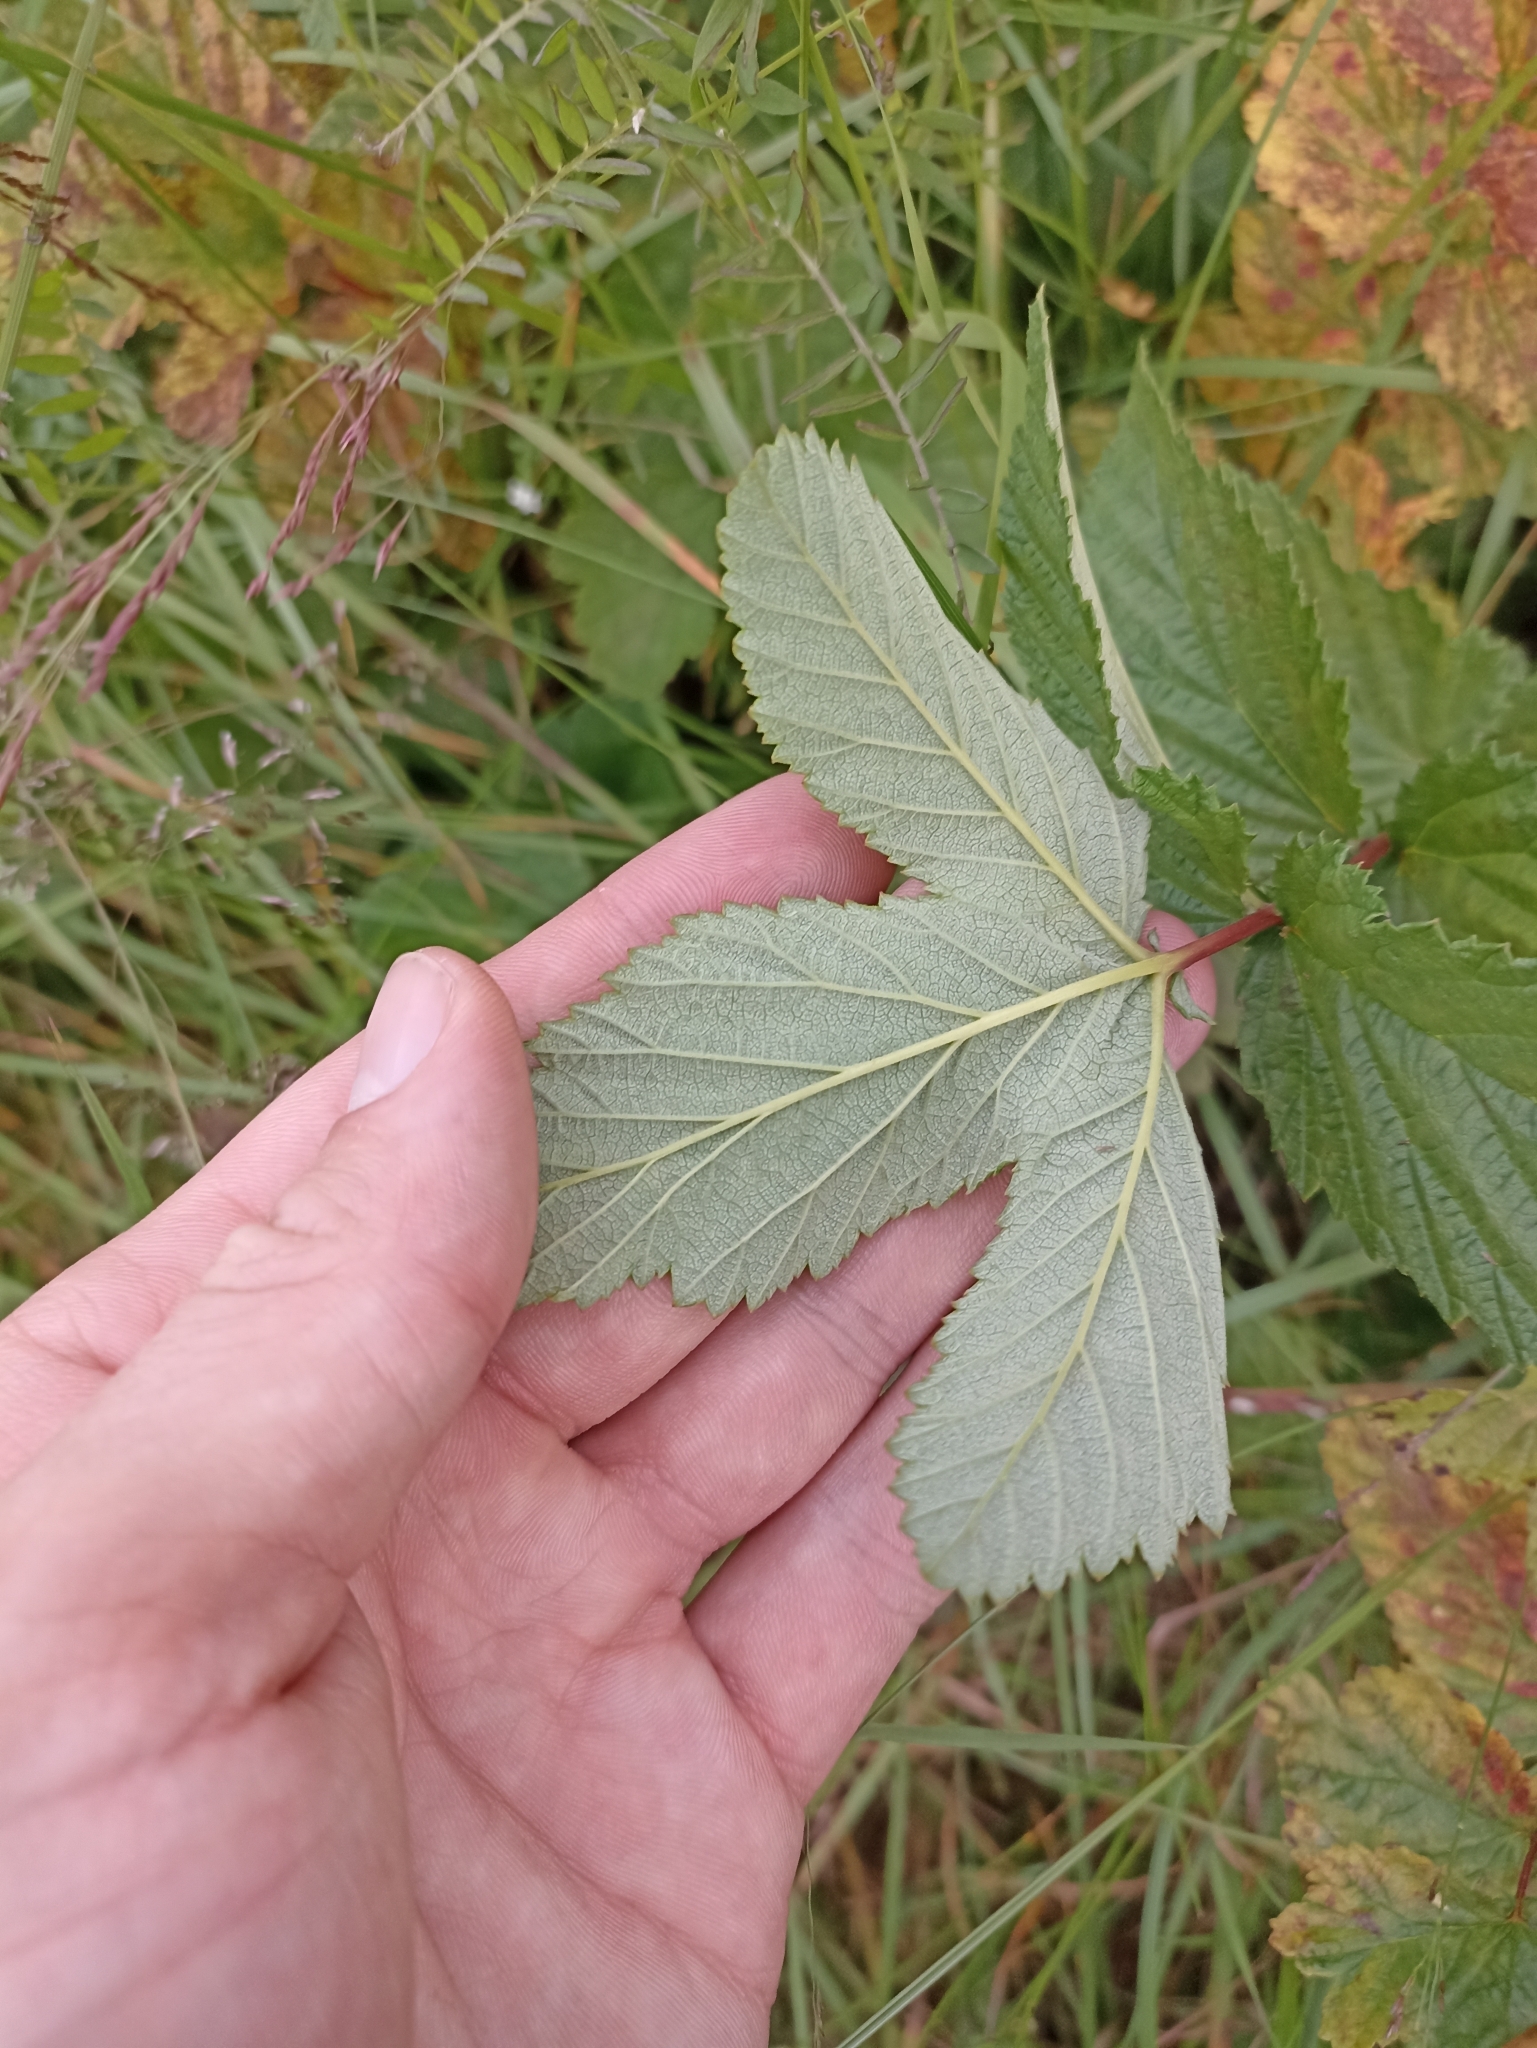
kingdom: Plantae
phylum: Tracheophyta
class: Magnoliopsida
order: Rosales
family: Rosaceae
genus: Filipendula
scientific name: Filipendula ulmaria
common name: Meadowsweet
